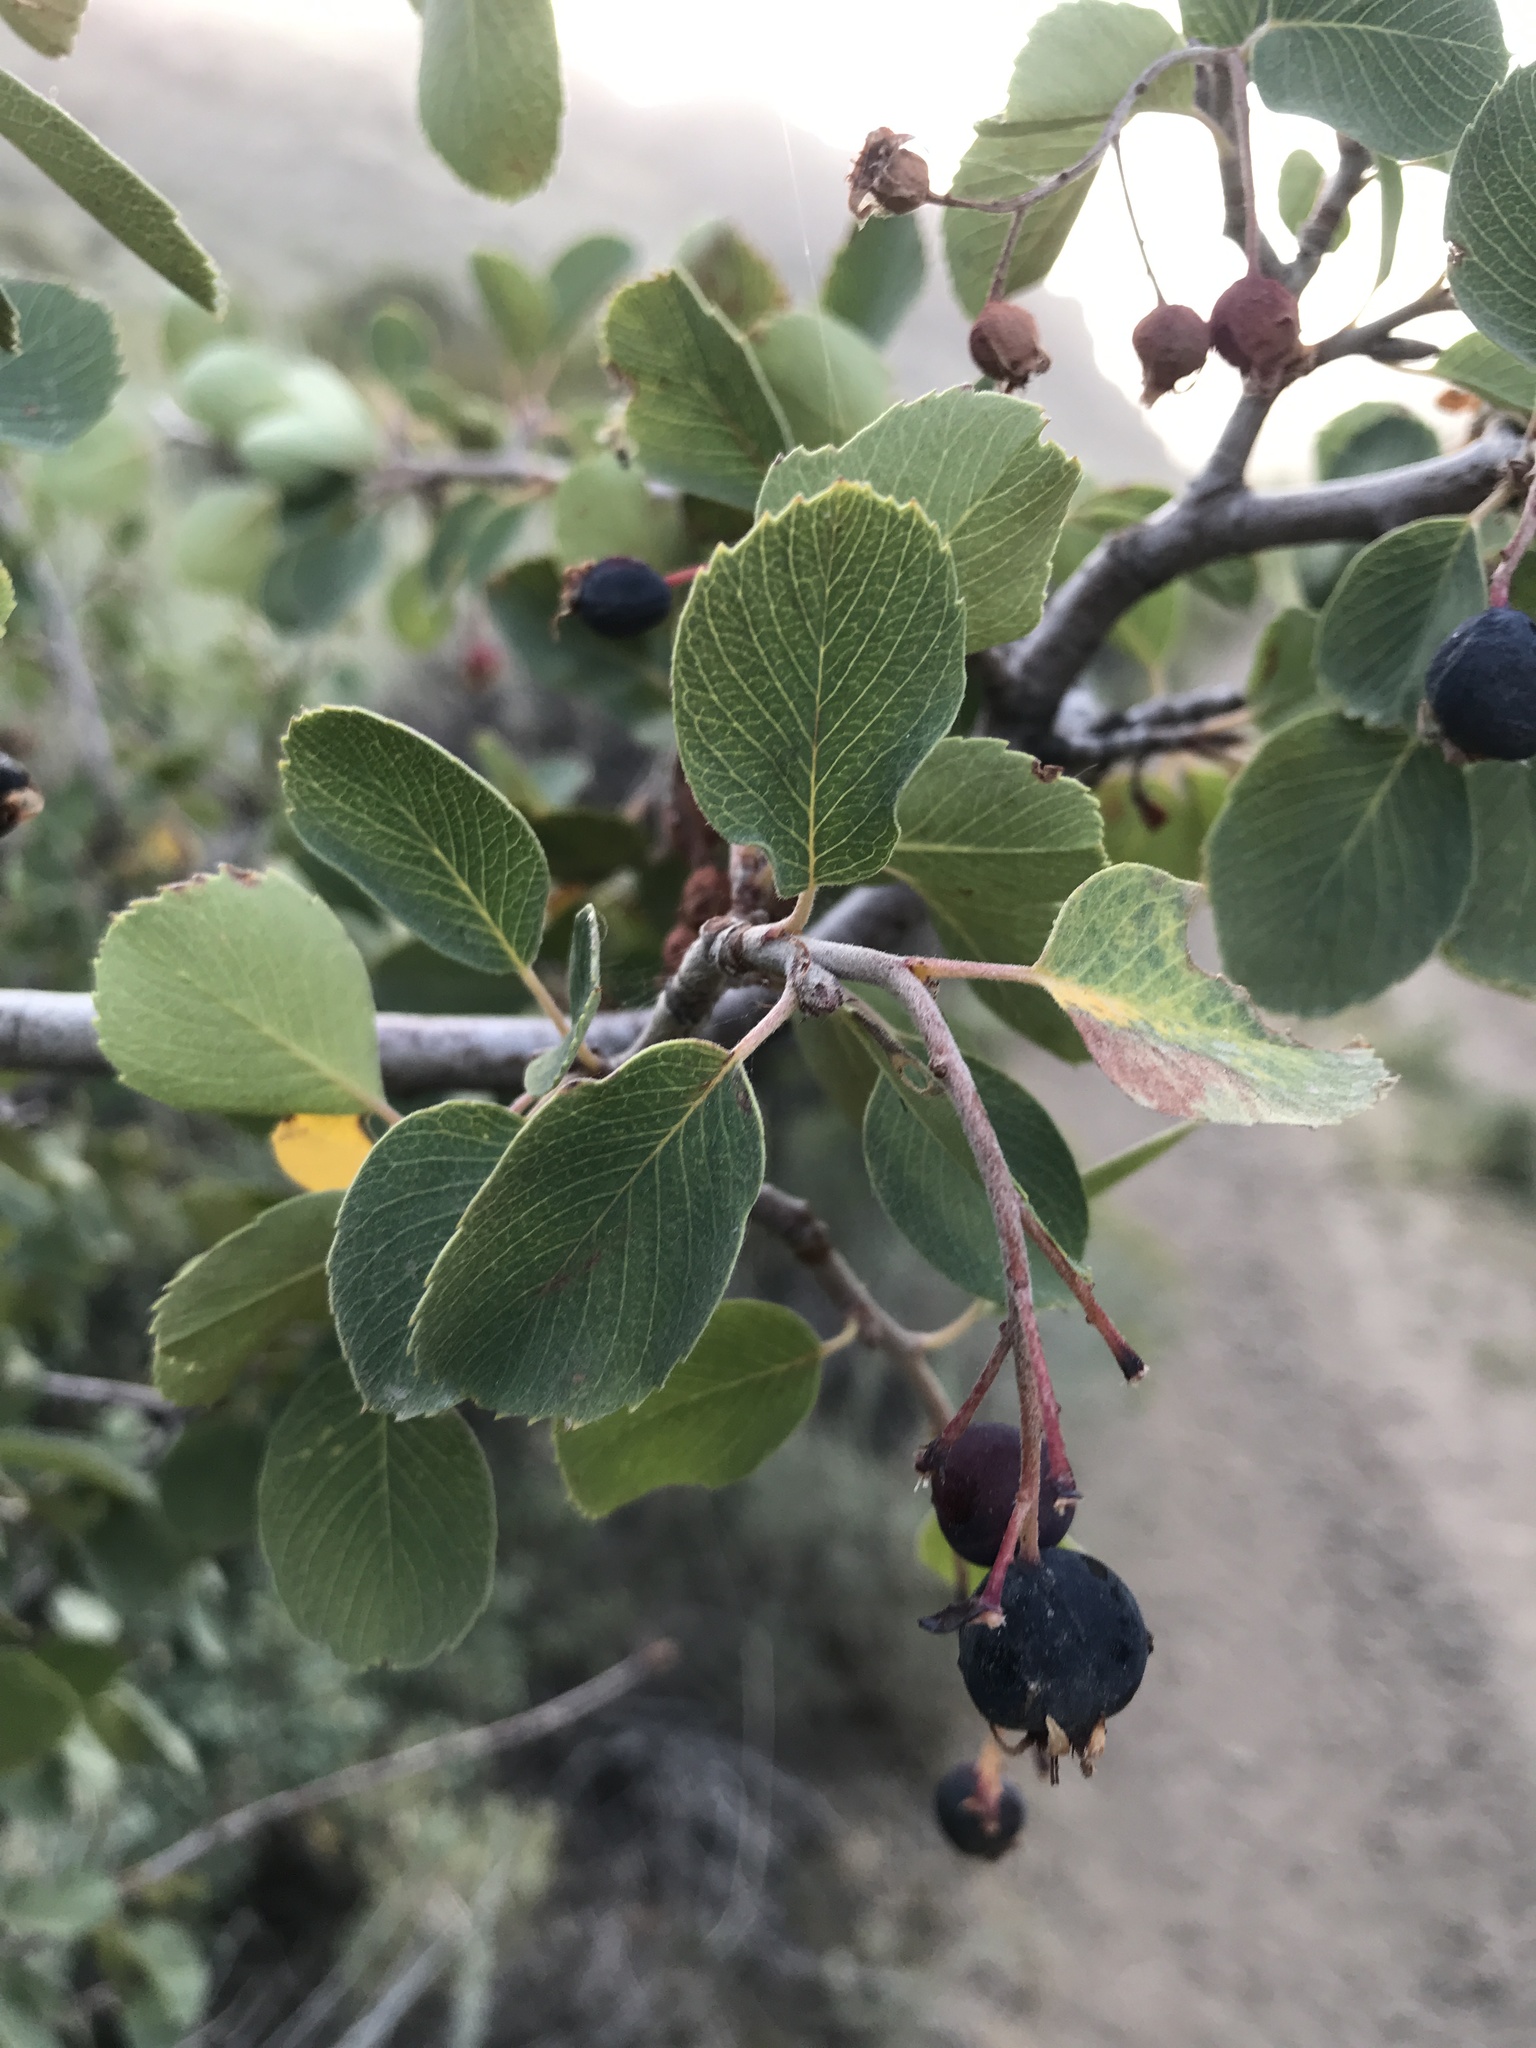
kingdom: Plantae
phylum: Tracheophyta
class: Magnoliopsida
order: Rosales
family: Rosaceae
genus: Amelanchier
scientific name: Amelanchier utahensis
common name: Utah serviceberry
